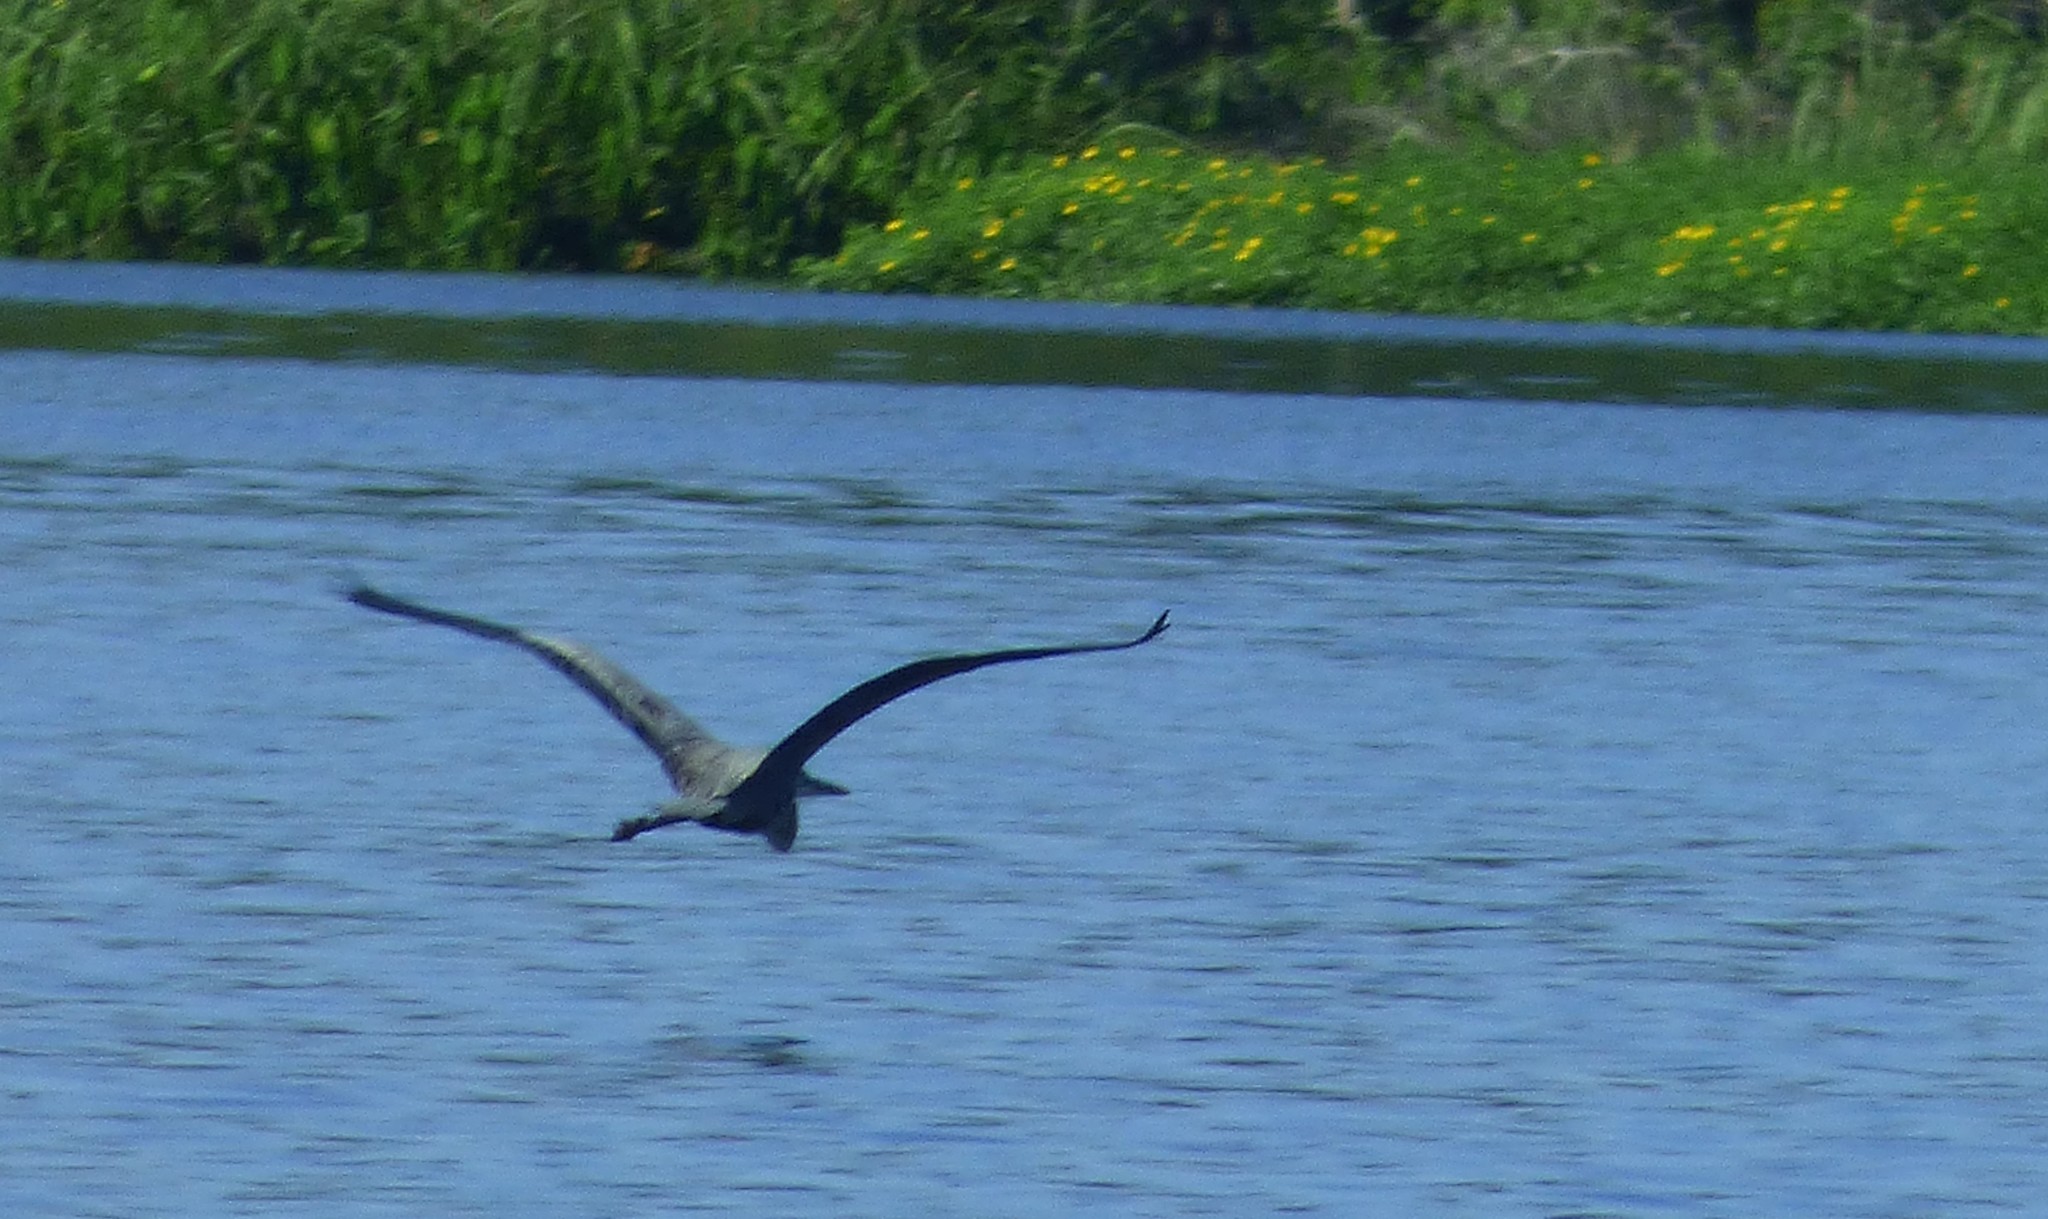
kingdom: Animalia
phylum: Chordata
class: Aves
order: Pelecaniformes
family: Ardeidae
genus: Ardea
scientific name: Ardea herodias
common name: Great blue heron
